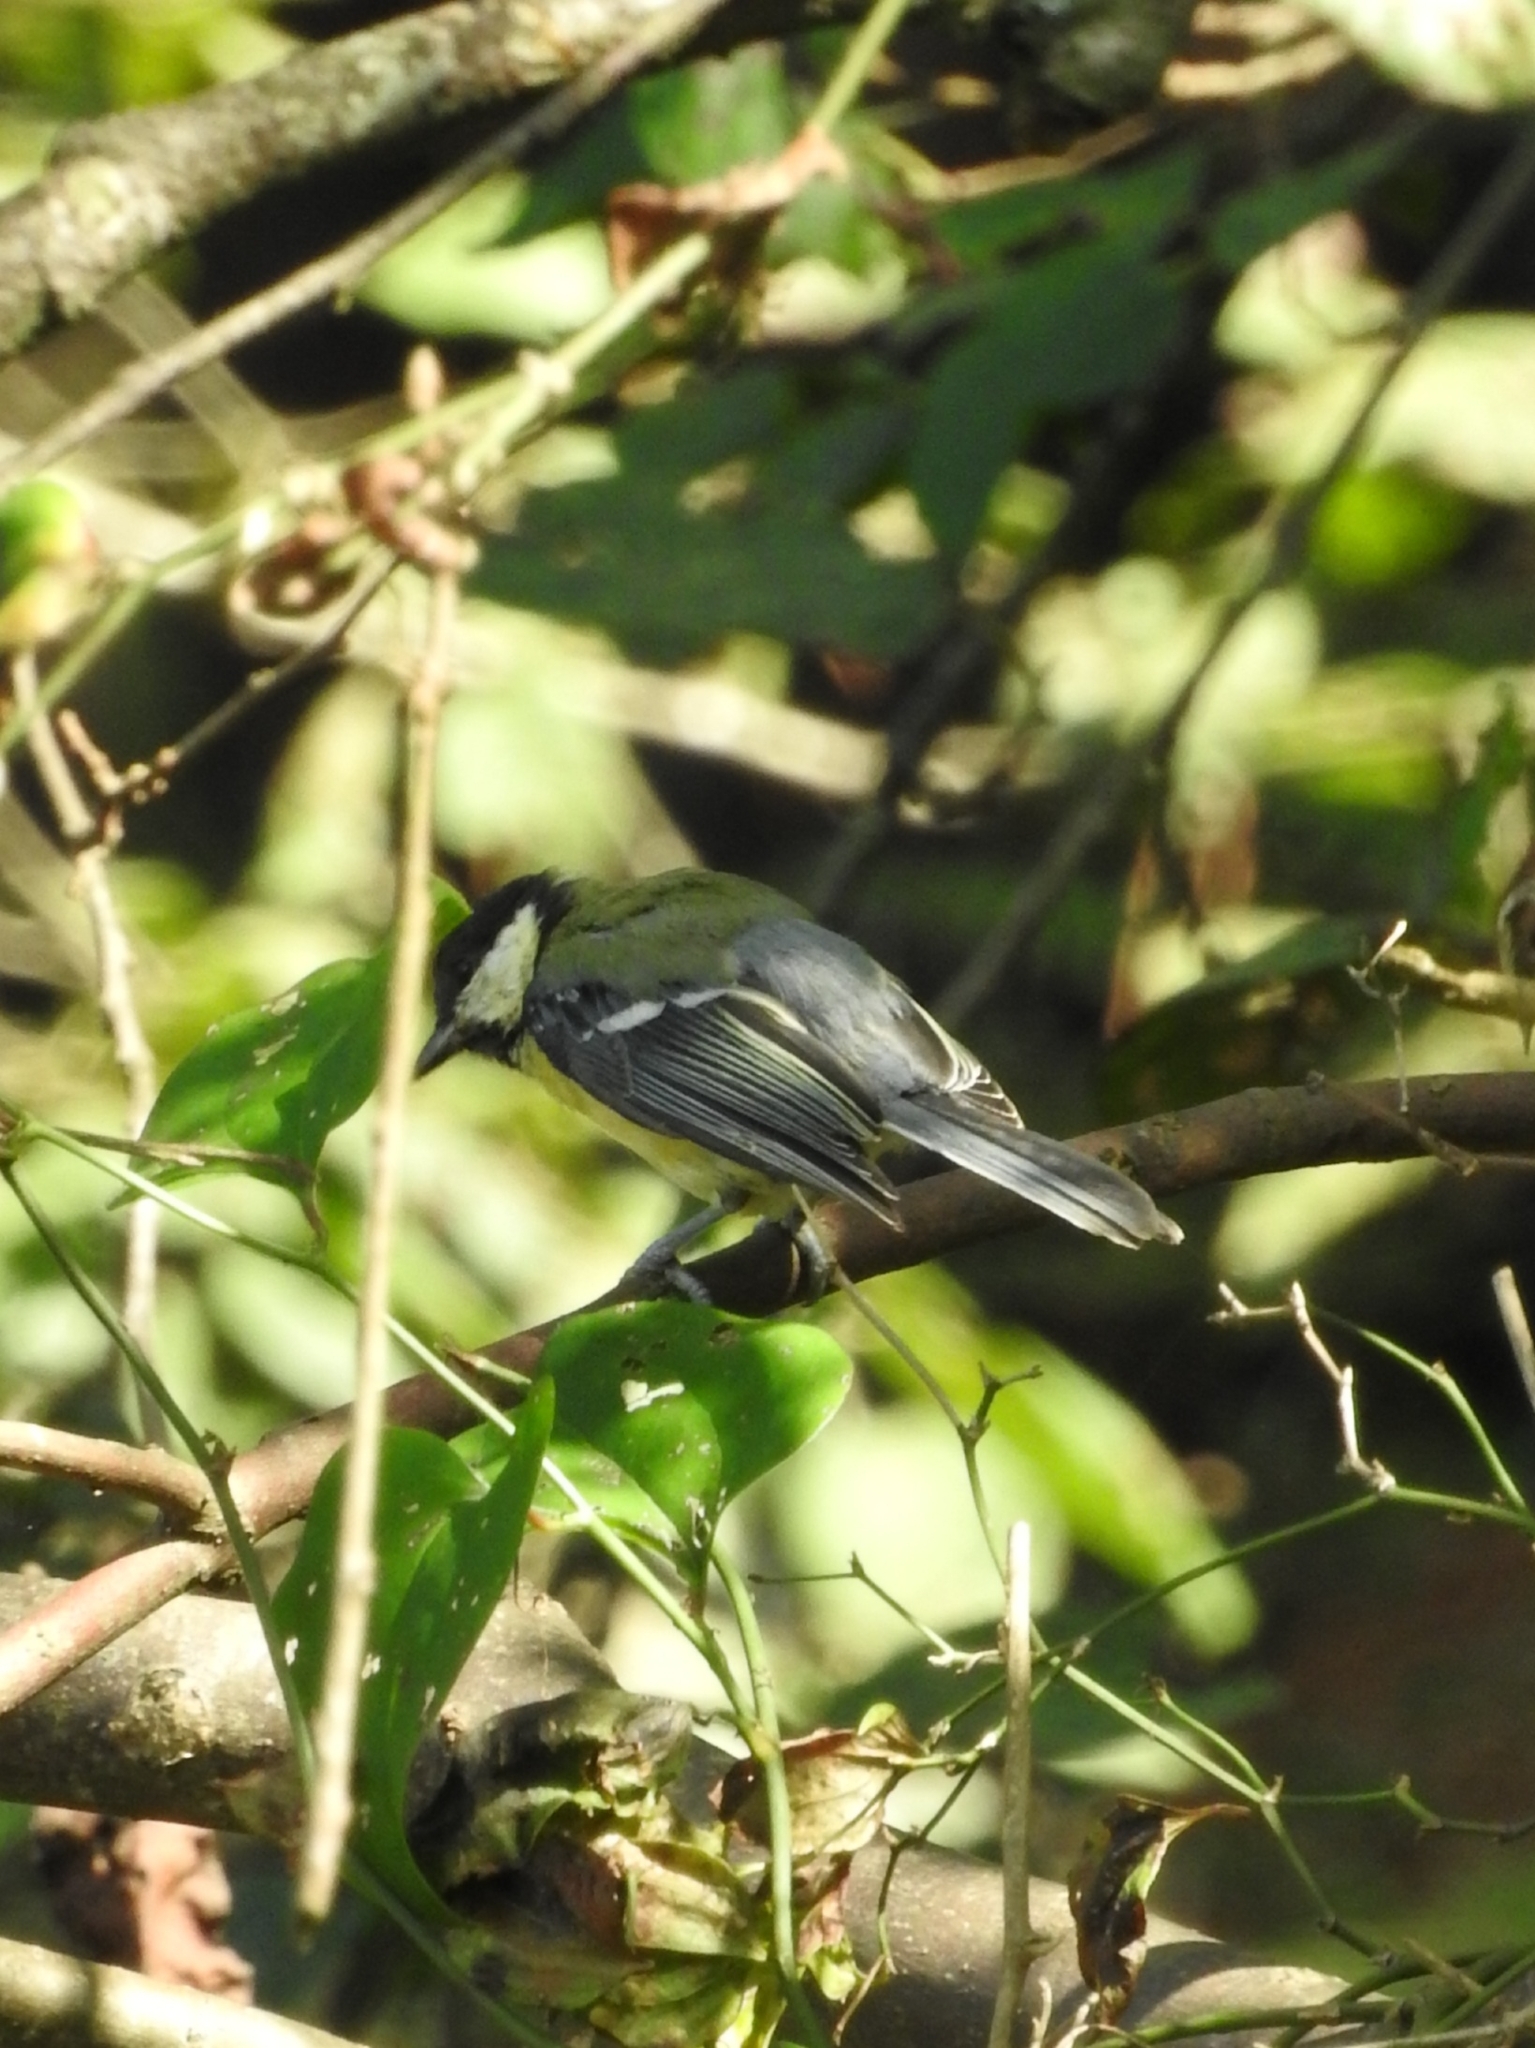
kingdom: Animalia
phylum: Chordata
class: Aves
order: Passeriformes
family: Paridae
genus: Parus
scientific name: Parus major
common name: Great tit
